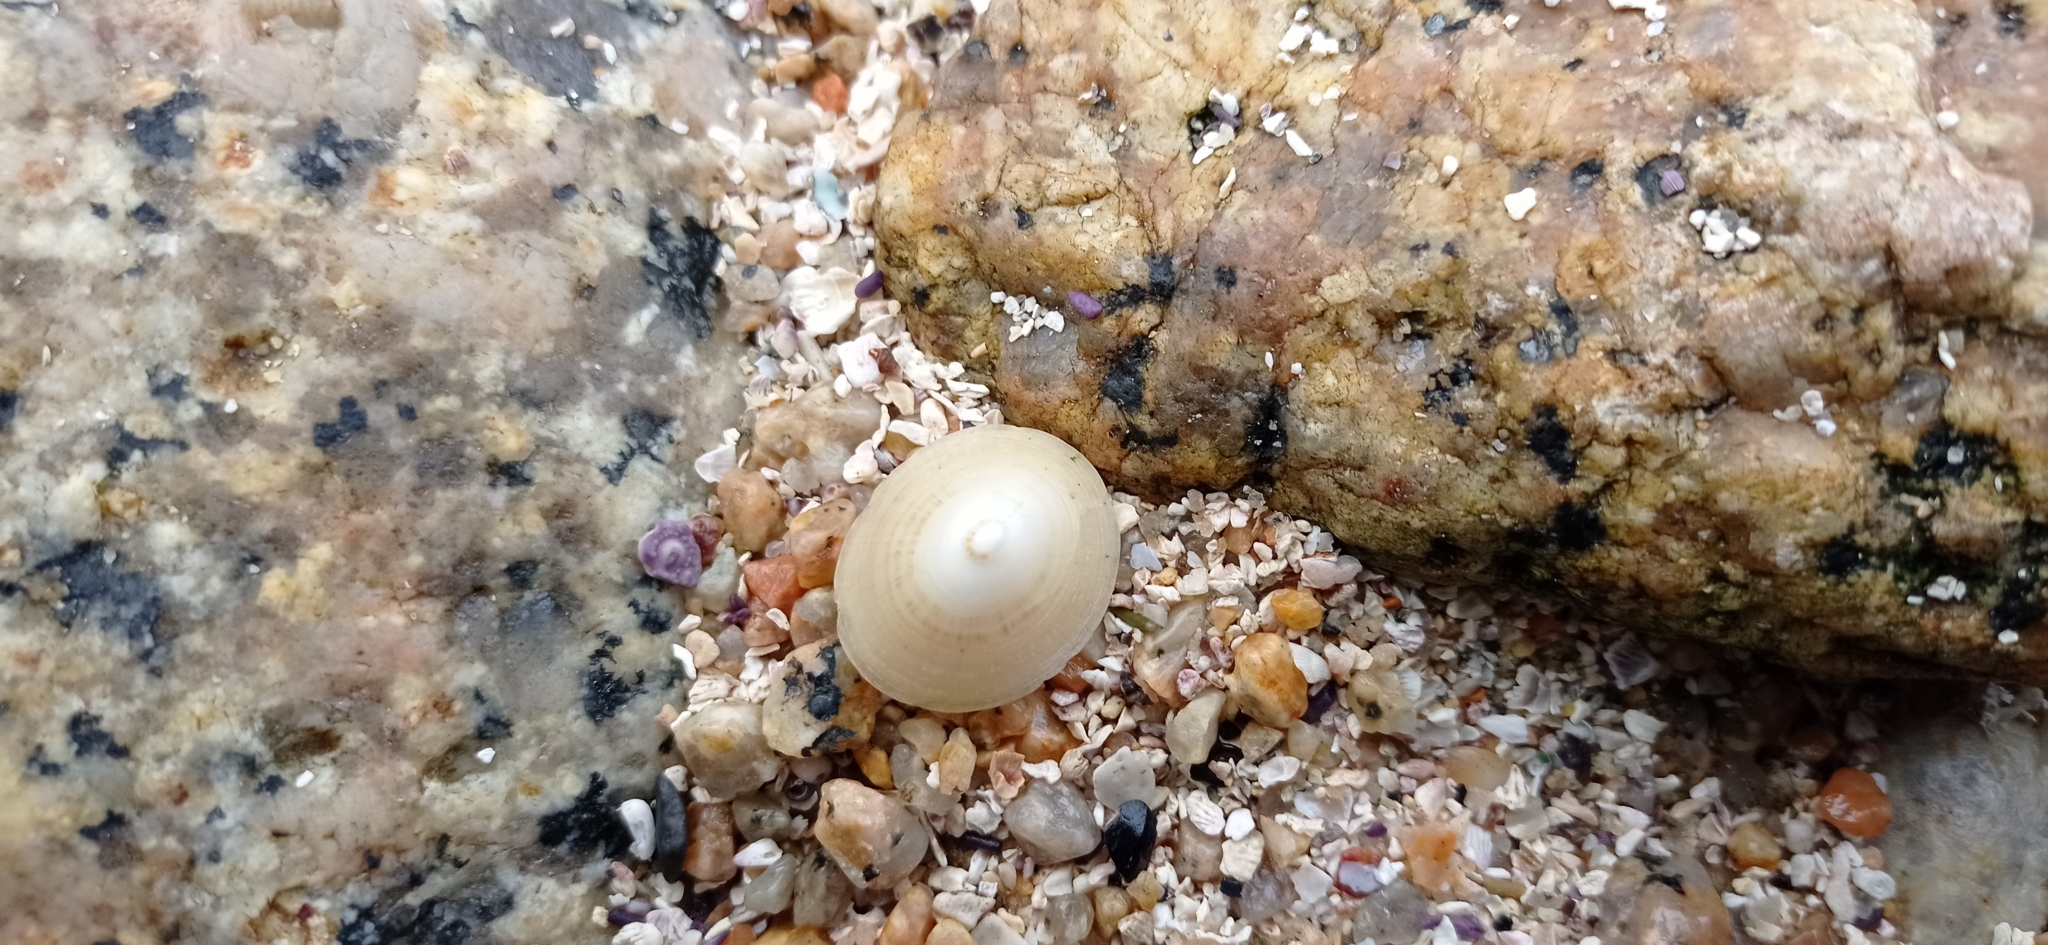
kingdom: Animalia
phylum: Mollusca
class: Gastropoda
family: Lottiidae
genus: Scurria
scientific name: Scurria scurra
